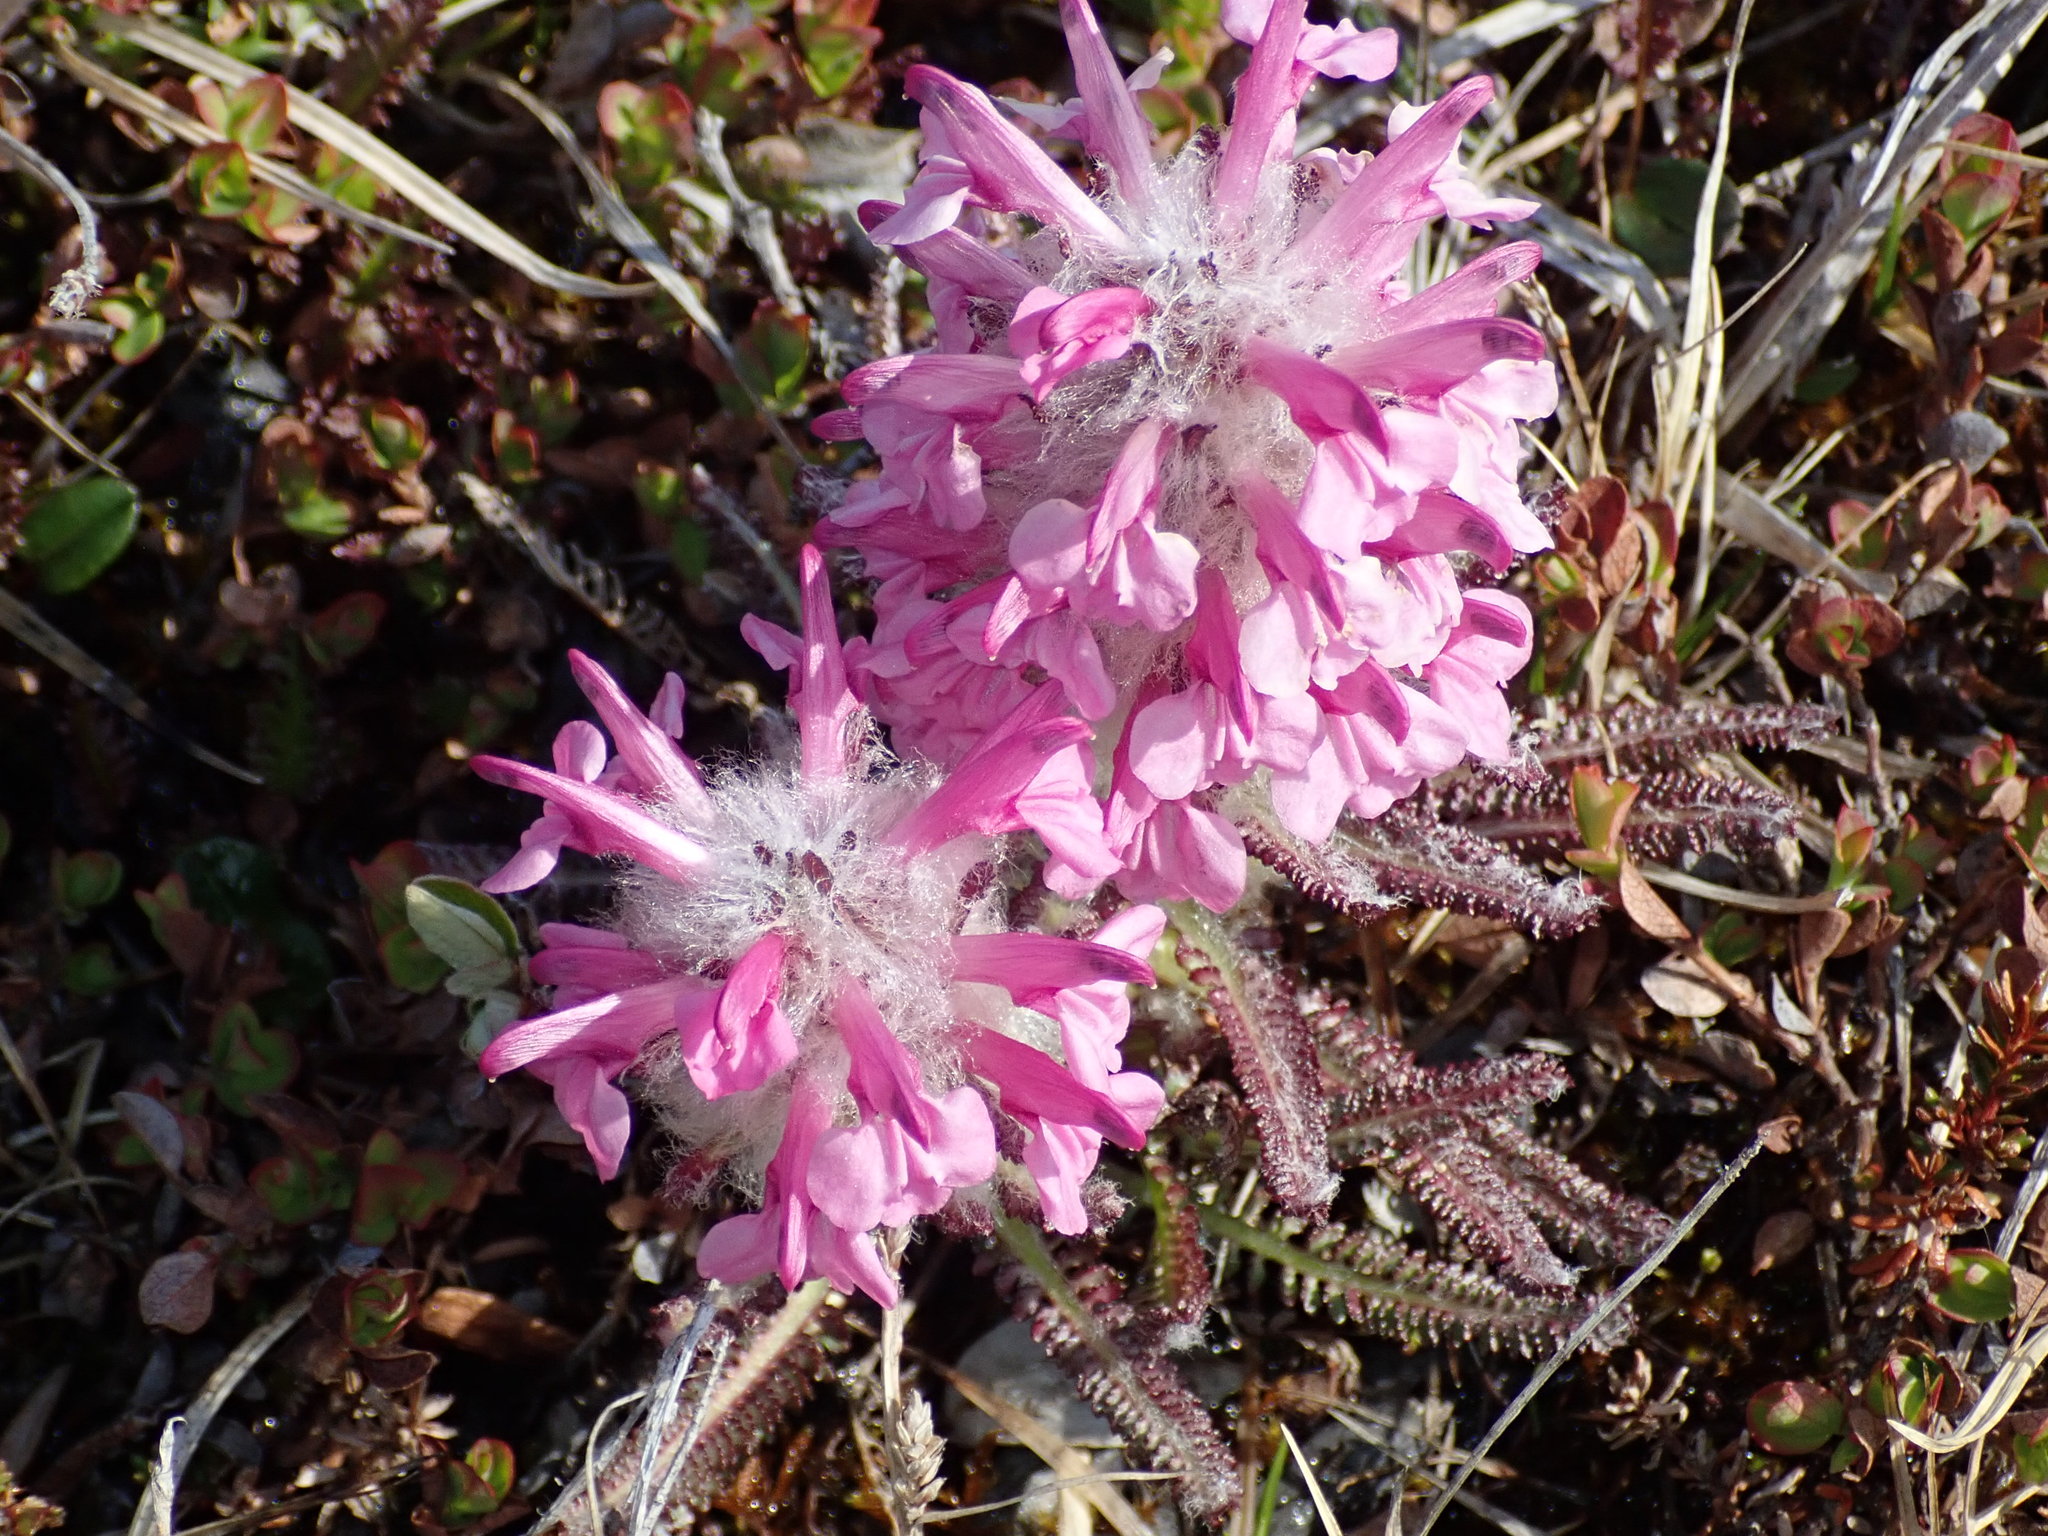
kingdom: Plantae
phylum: Tracheophyta
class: Magnoliopsida
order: Lamiales
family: Orobanchaceae
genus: Pedicularis
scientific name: Pedicularis lanata
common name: Woolly lousewort
